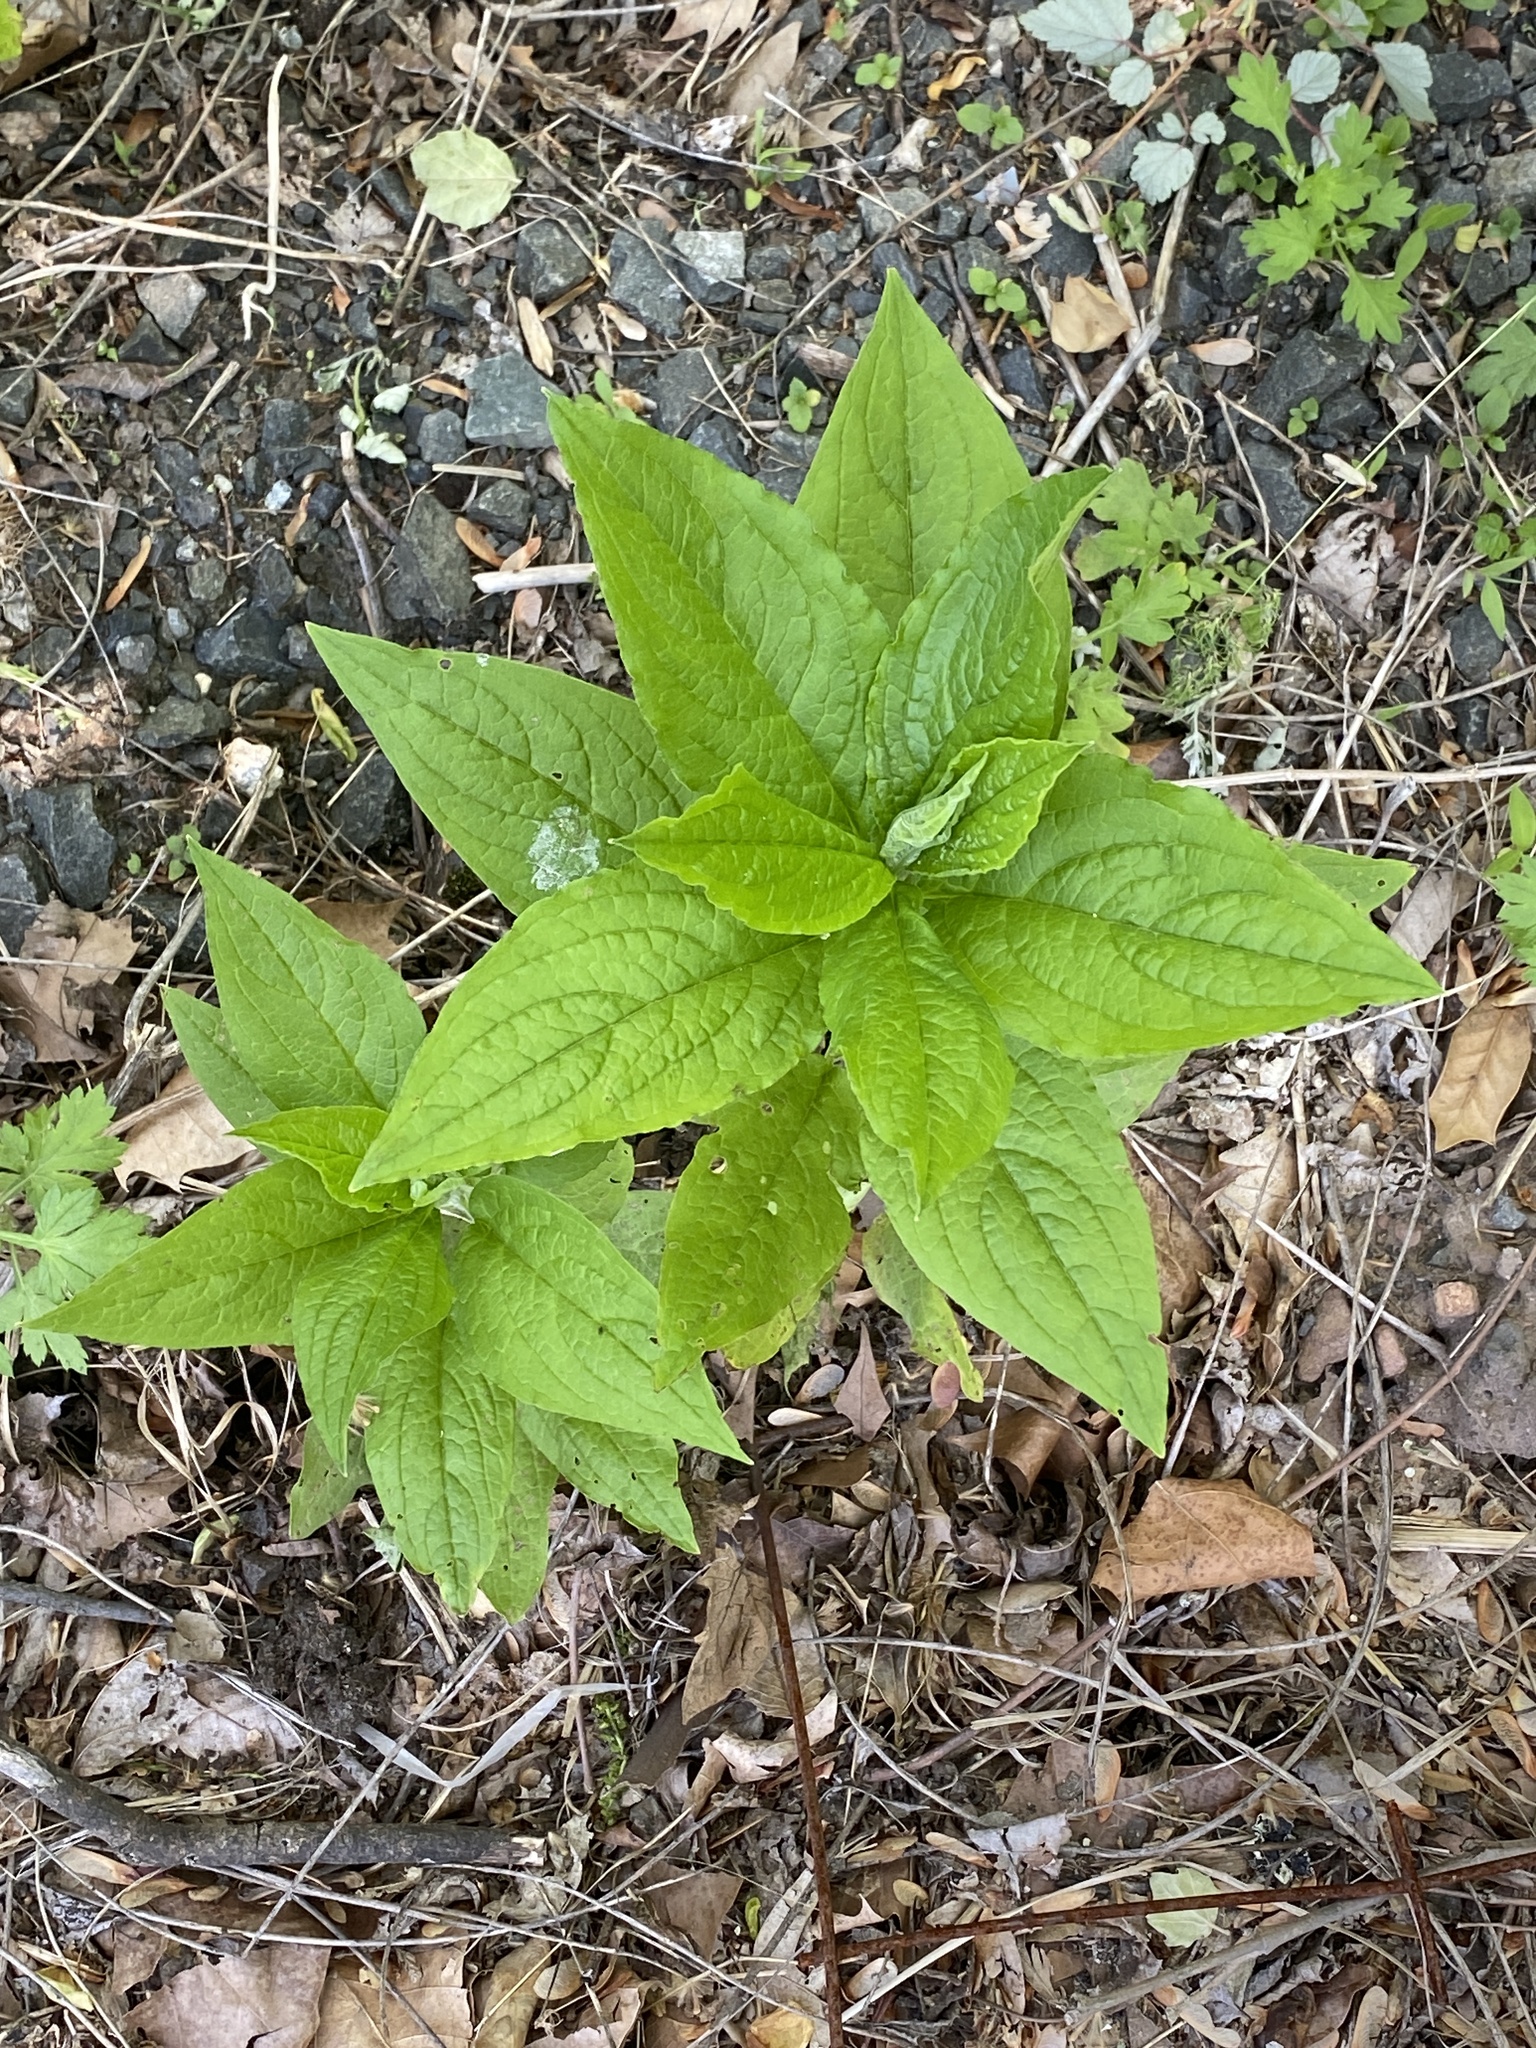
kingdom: Plantae
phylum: Tracheophyta
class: Magnoliopsida
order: Boraginales
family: Boraginaceae
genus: Hackelia
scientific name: Hackelia virginiana
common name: Beggar's-lice
